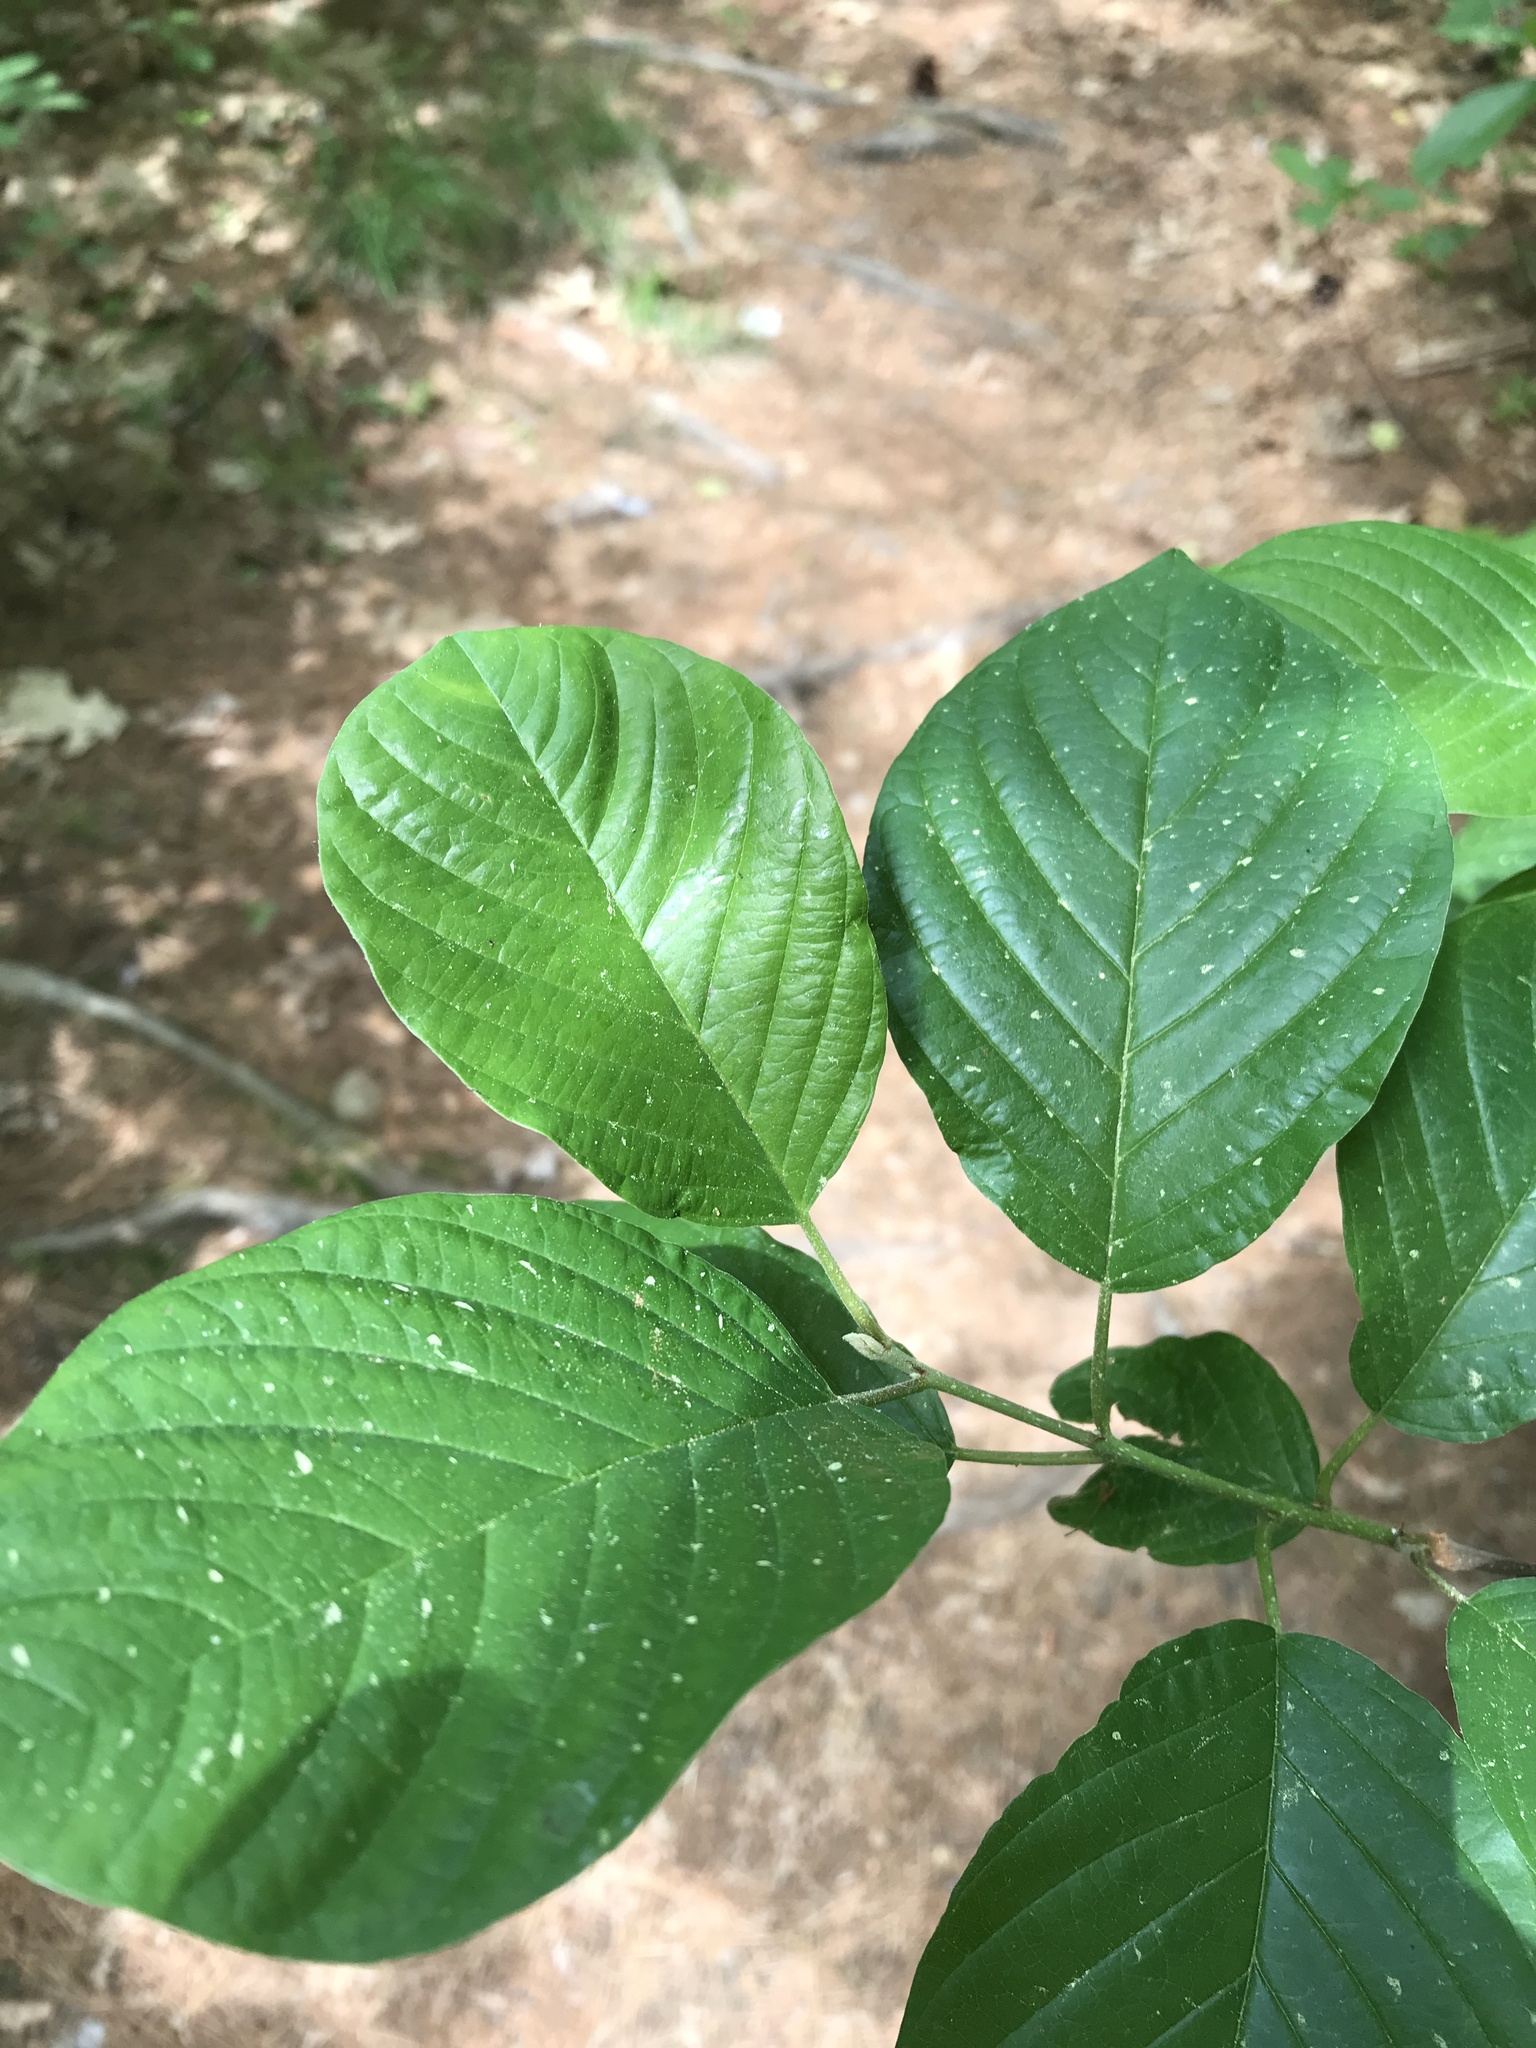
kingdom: Plantae
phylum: Tracheophyta
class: Magnoliopsida
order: Rosales
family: Rhamnaceae
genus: Frangula
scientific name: Frangula alnus
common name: Alder buckthorn
